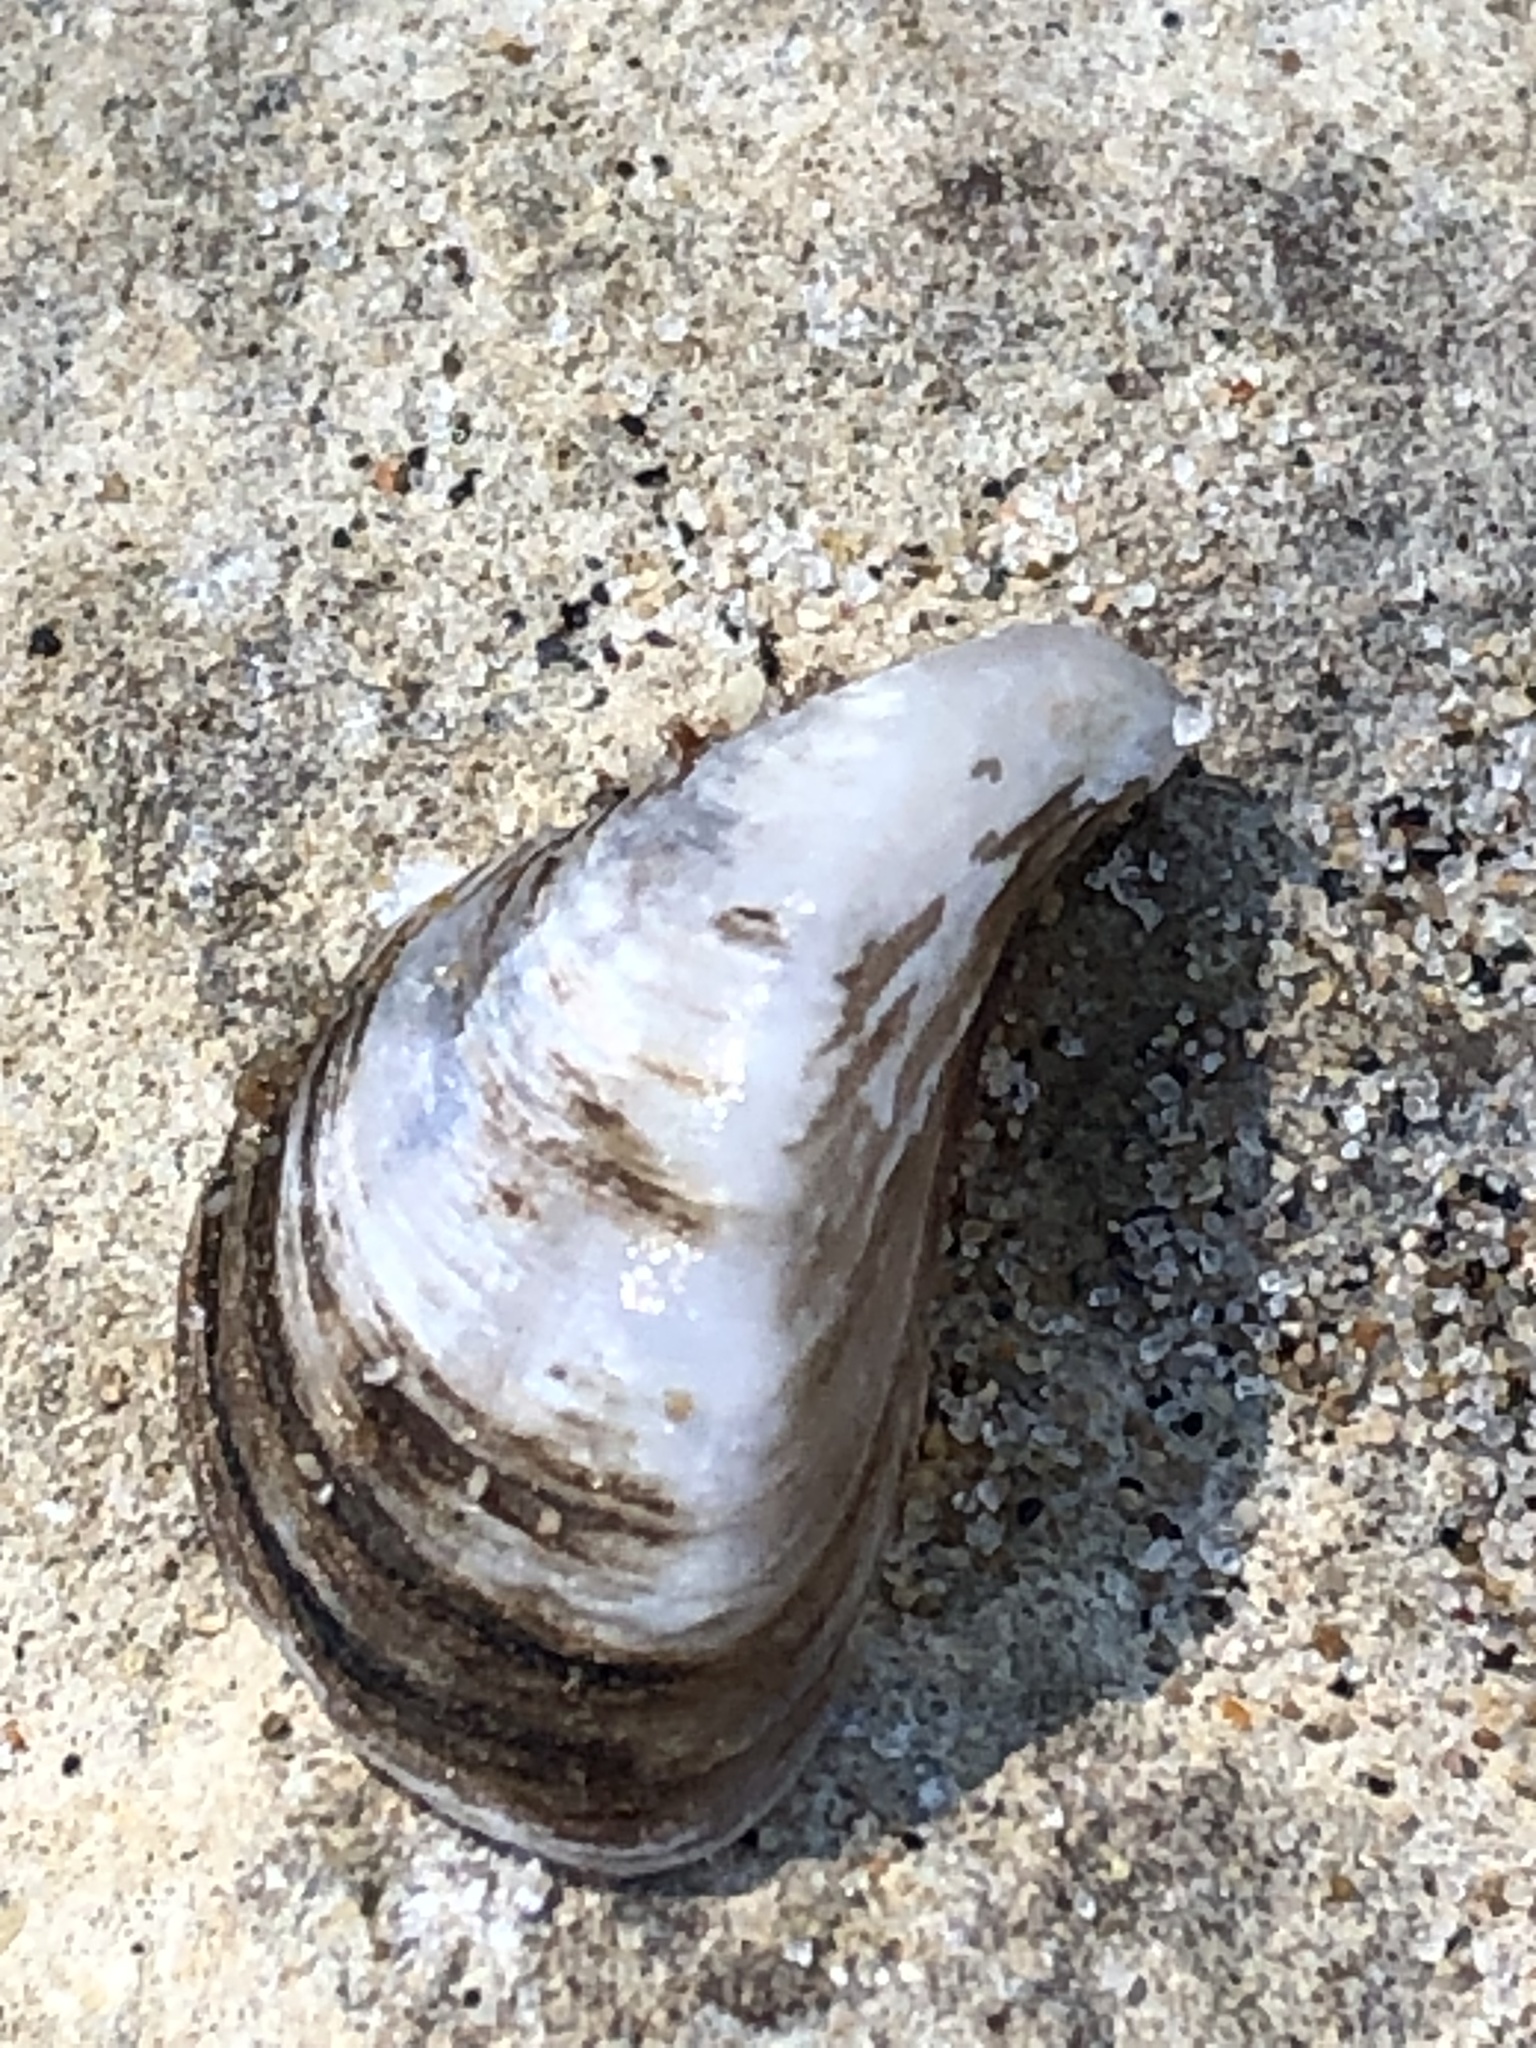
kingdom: Animalia
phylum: Mollusca
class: Bivalvia
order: Myida
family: Dreissenidae
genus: Dreissena
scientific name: Dreissena polymorpha
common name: Zebra mussel
